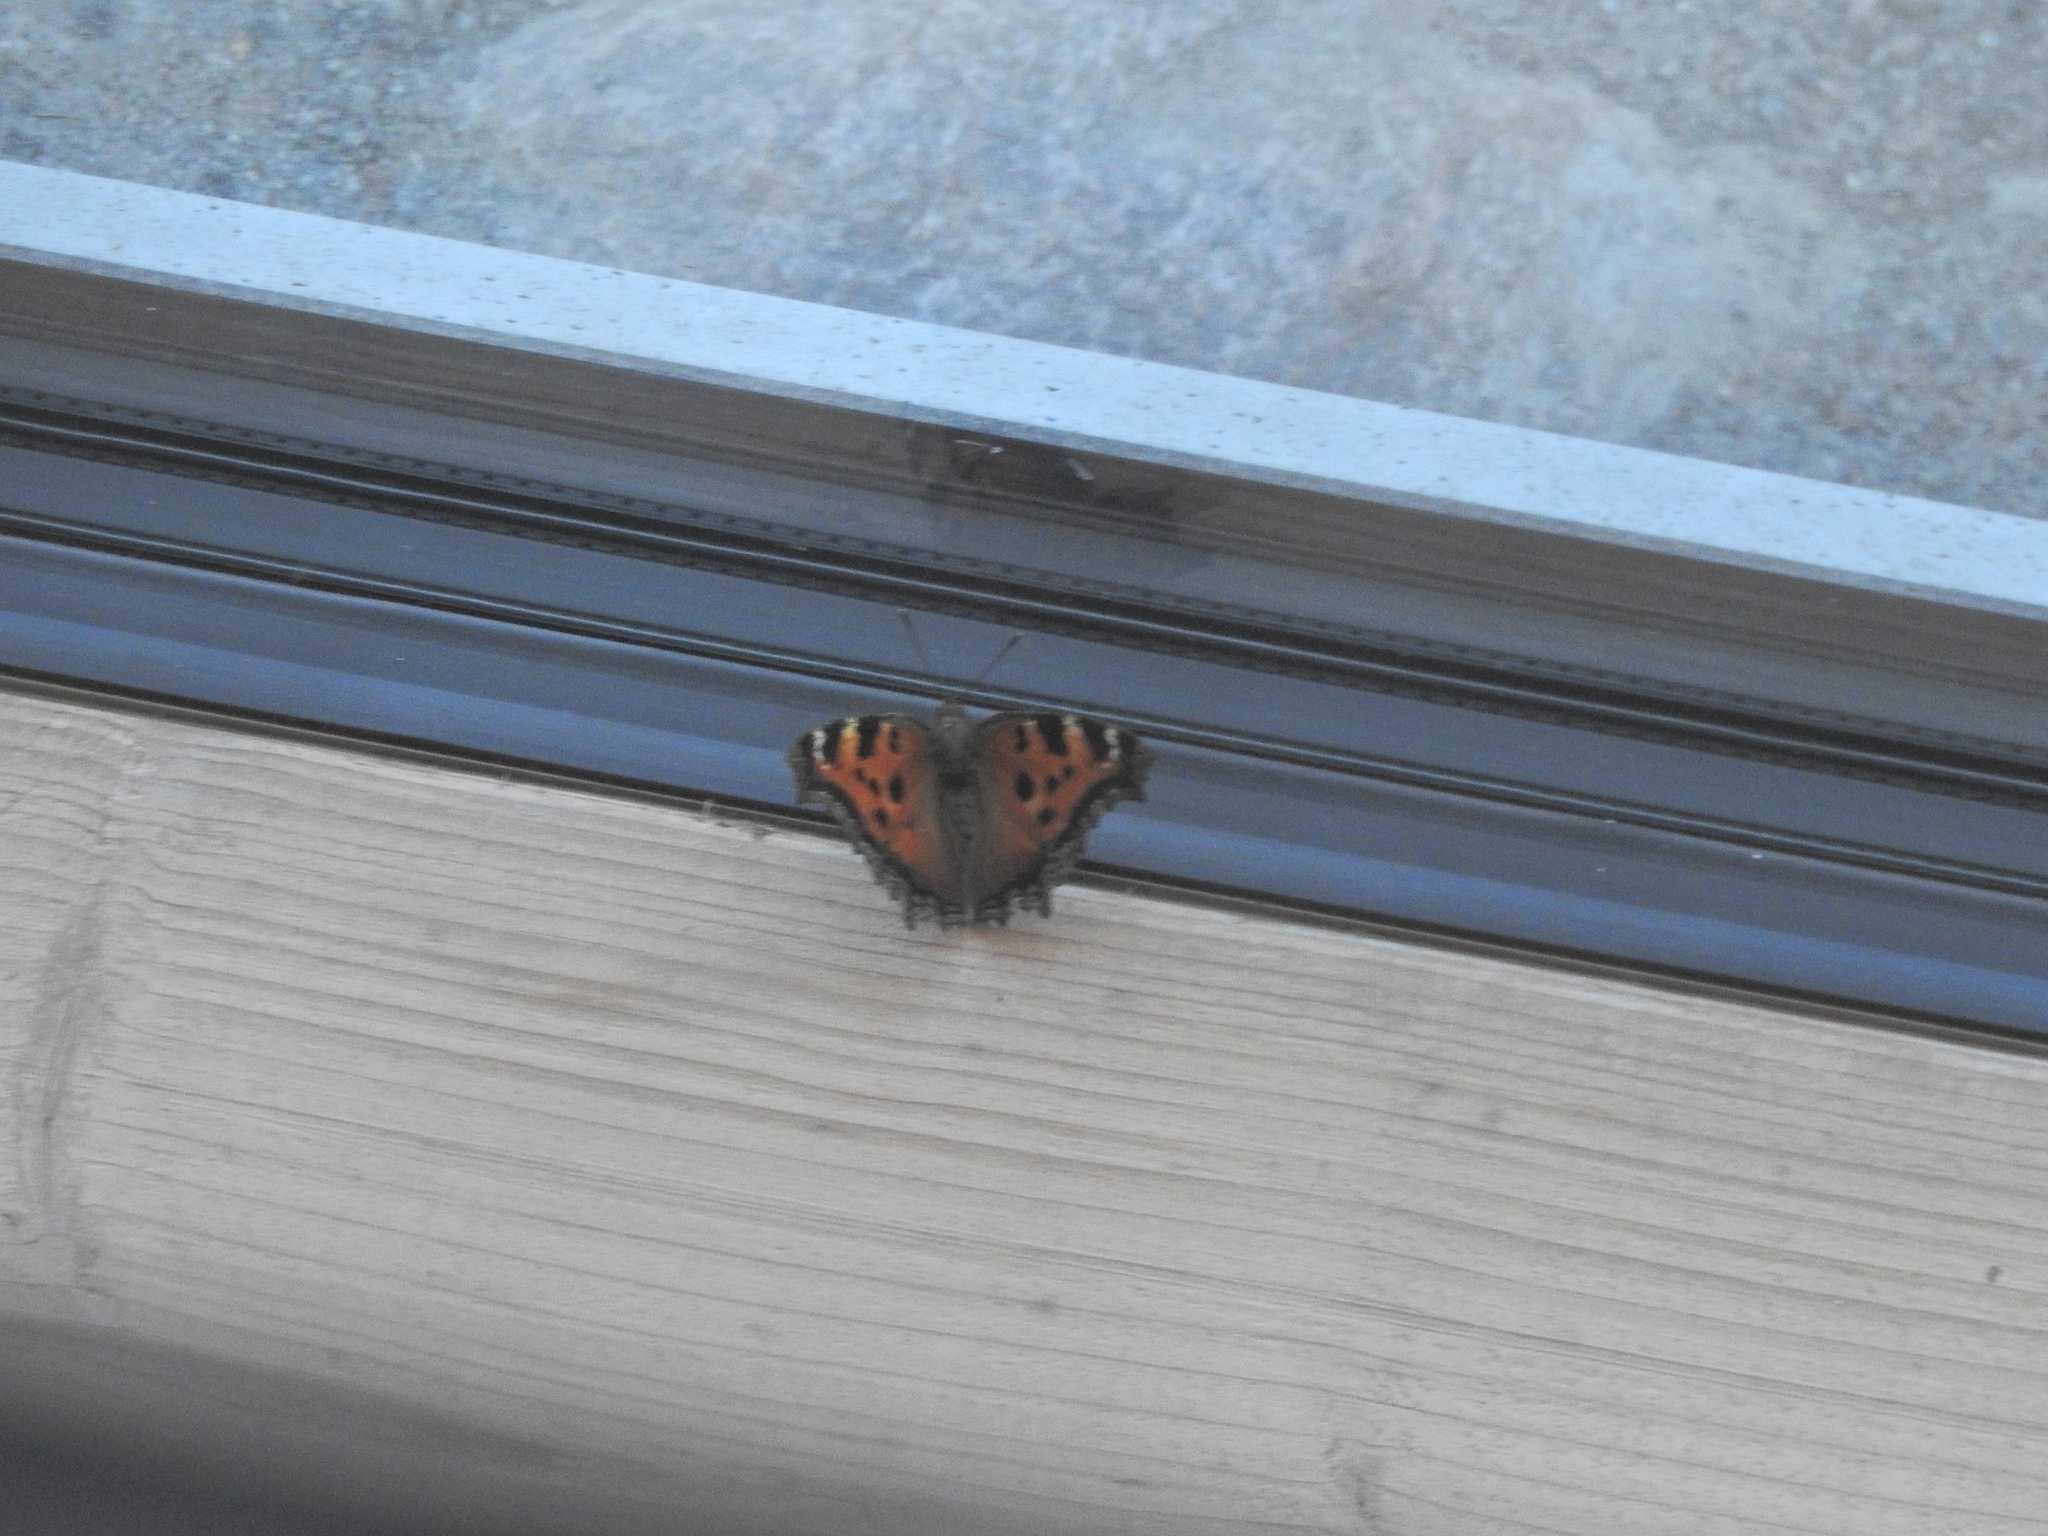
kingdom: Animalia
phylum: Arthropoda
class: Insecta
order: Lepidoptera
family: Nymphalidae
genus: Nymphalis
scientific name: Nymphalis xanthomelas
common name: Scarce tortoiseshell
